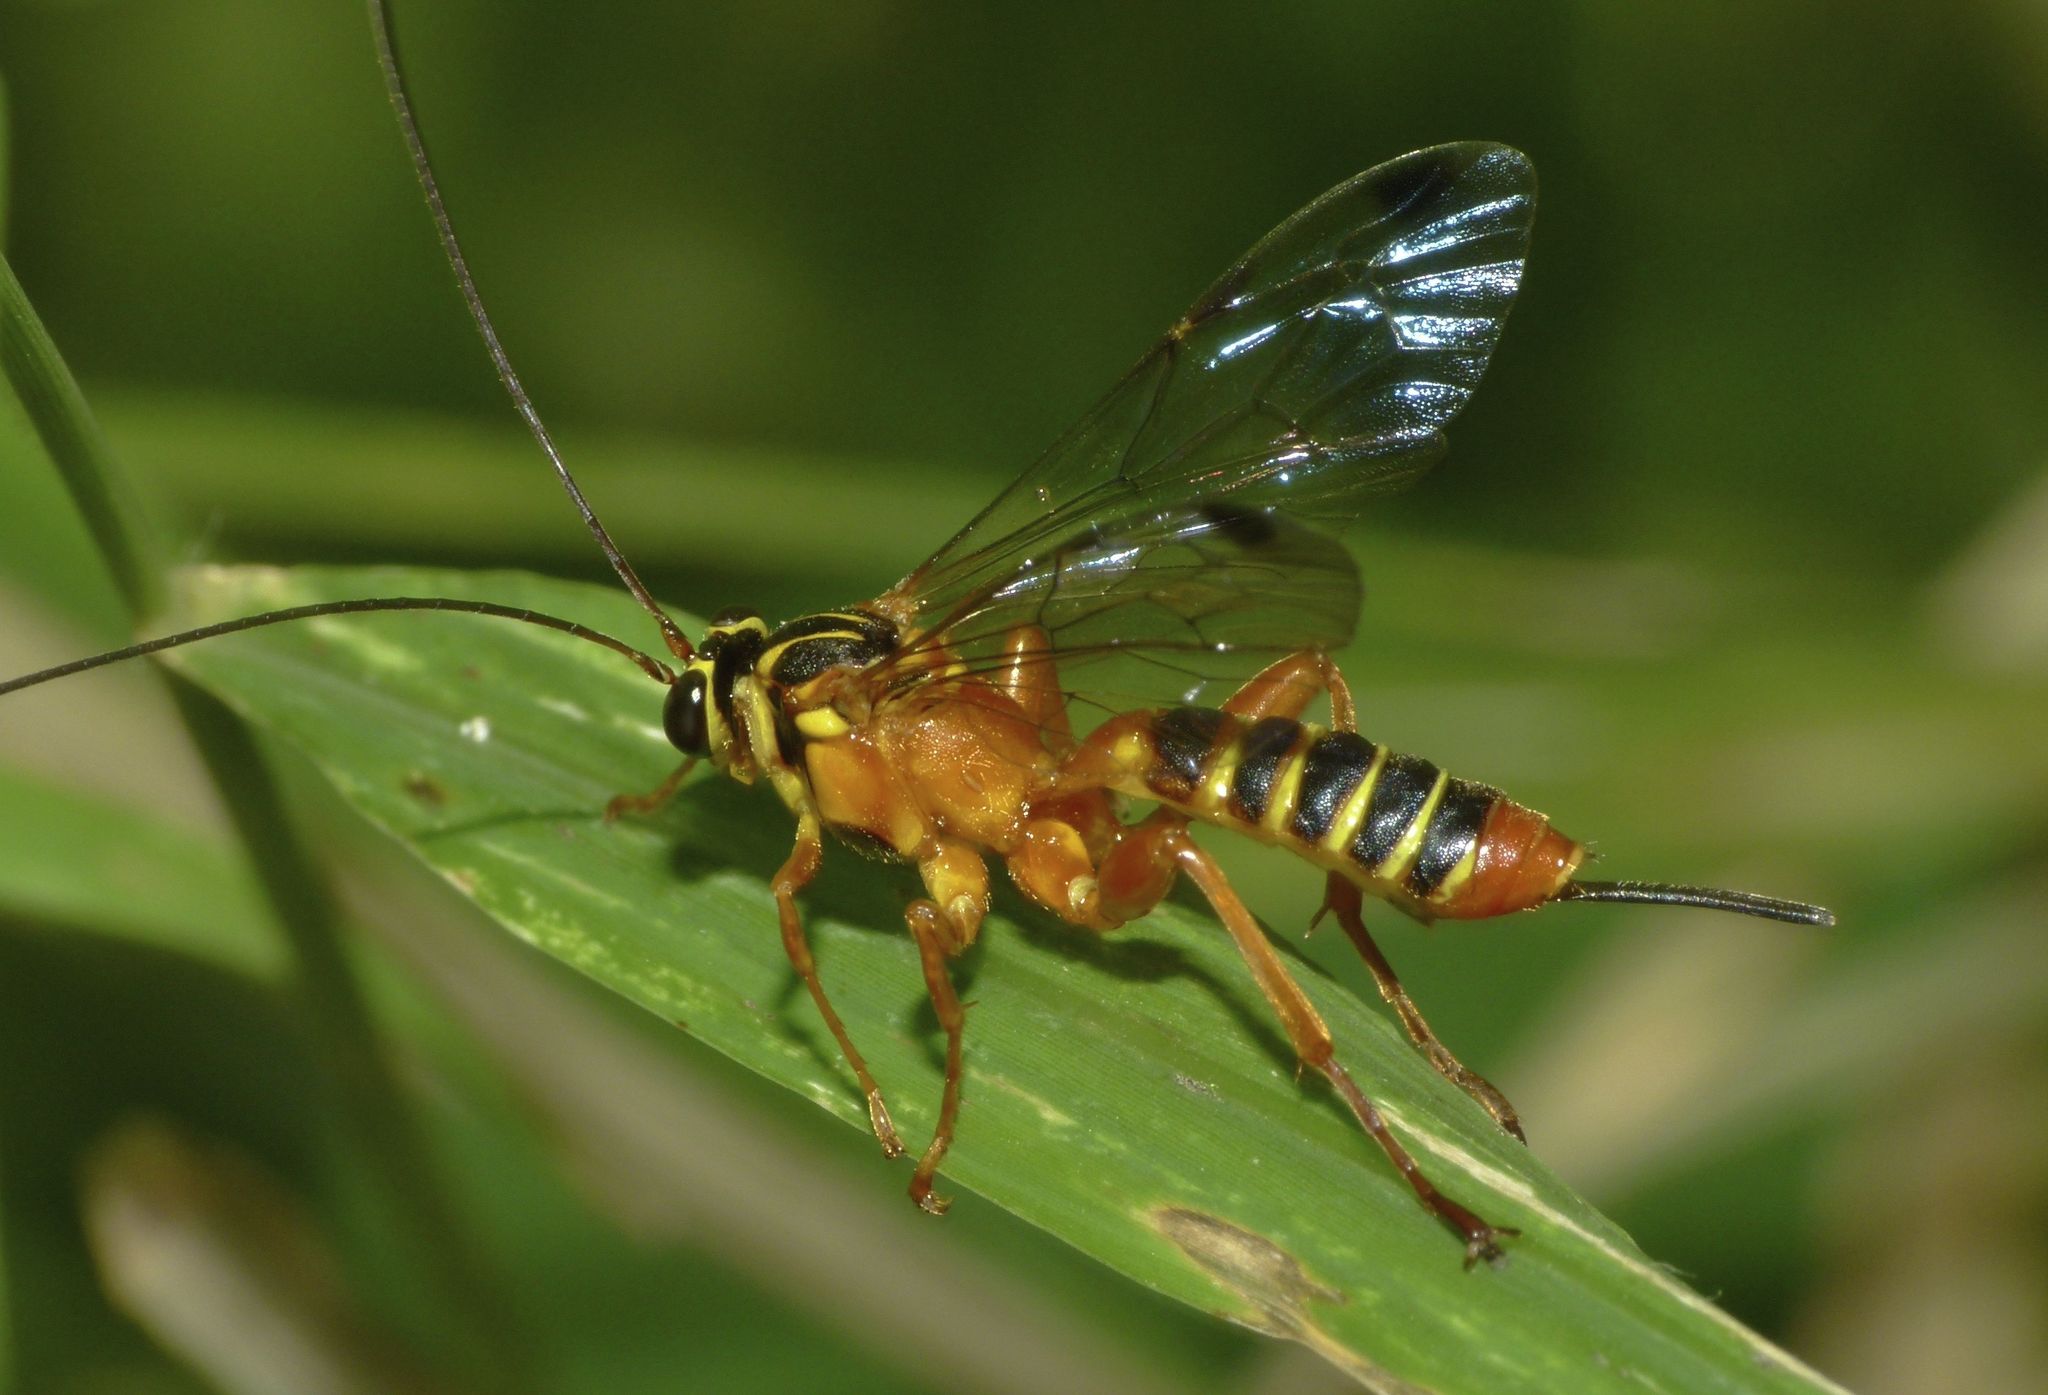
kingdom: Animalia
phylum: Arthropoda
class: Insecta
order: Hymenoptera
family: Ichneumonidae
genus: Echthromorpha
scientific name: Echthromorpha agrestoria
